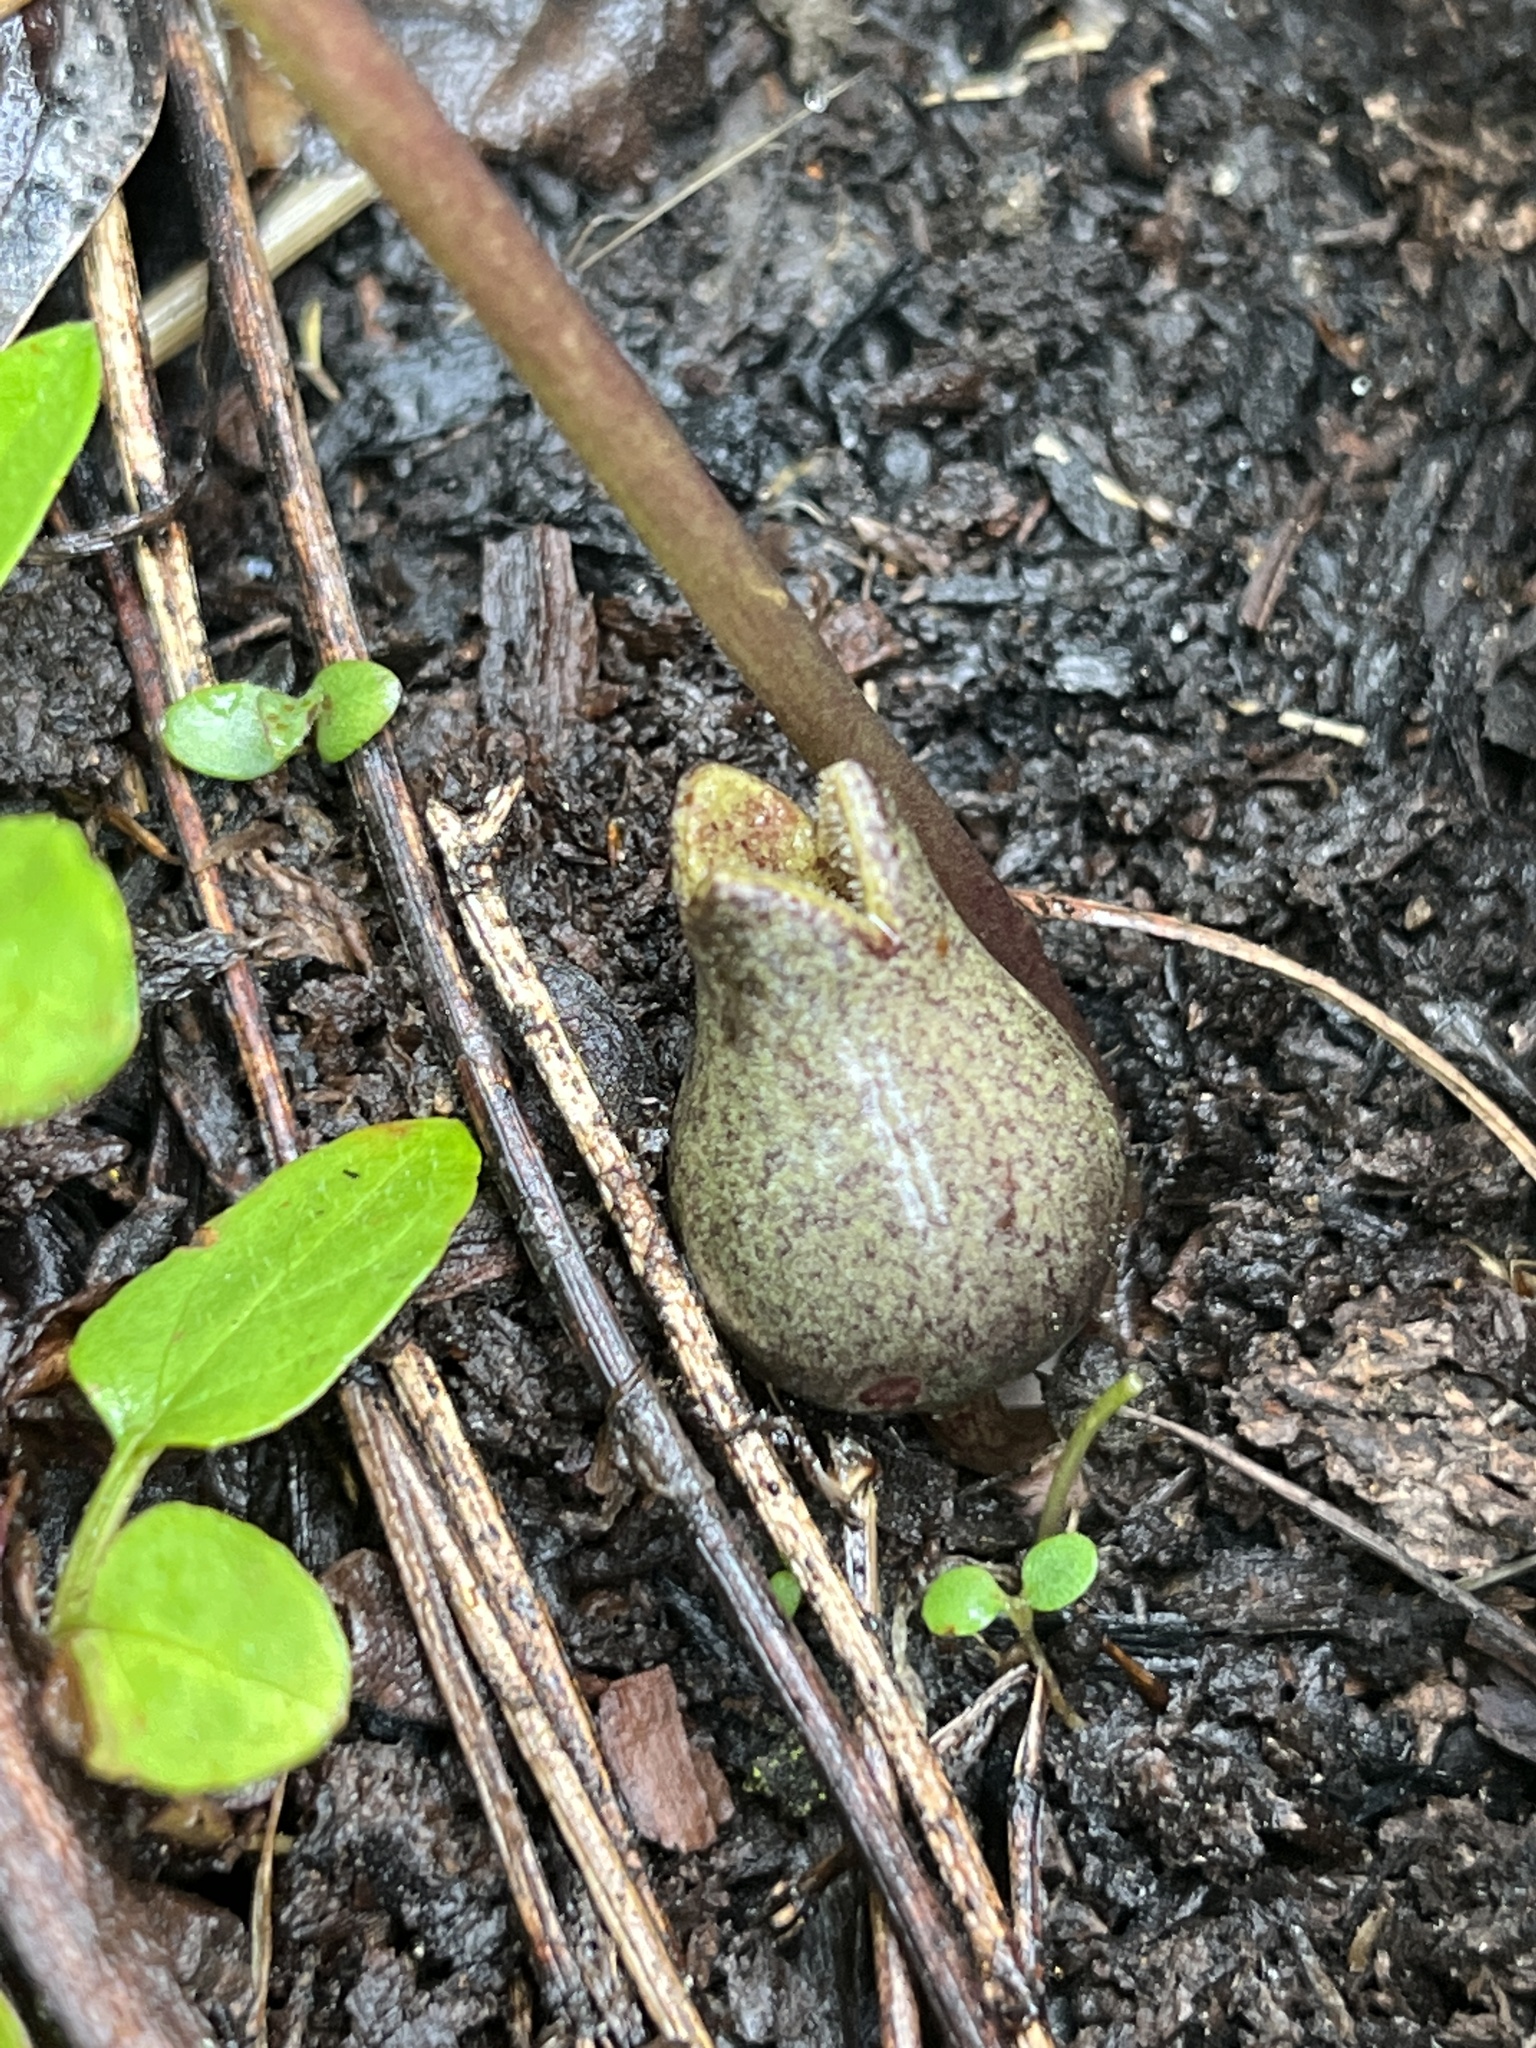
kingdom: Plantae
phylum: Tracheophyta
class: Magnoliopsida
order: Piperales
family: Aristolochiaceae
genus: Hexastylis
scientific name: Hexastylis arifolia
